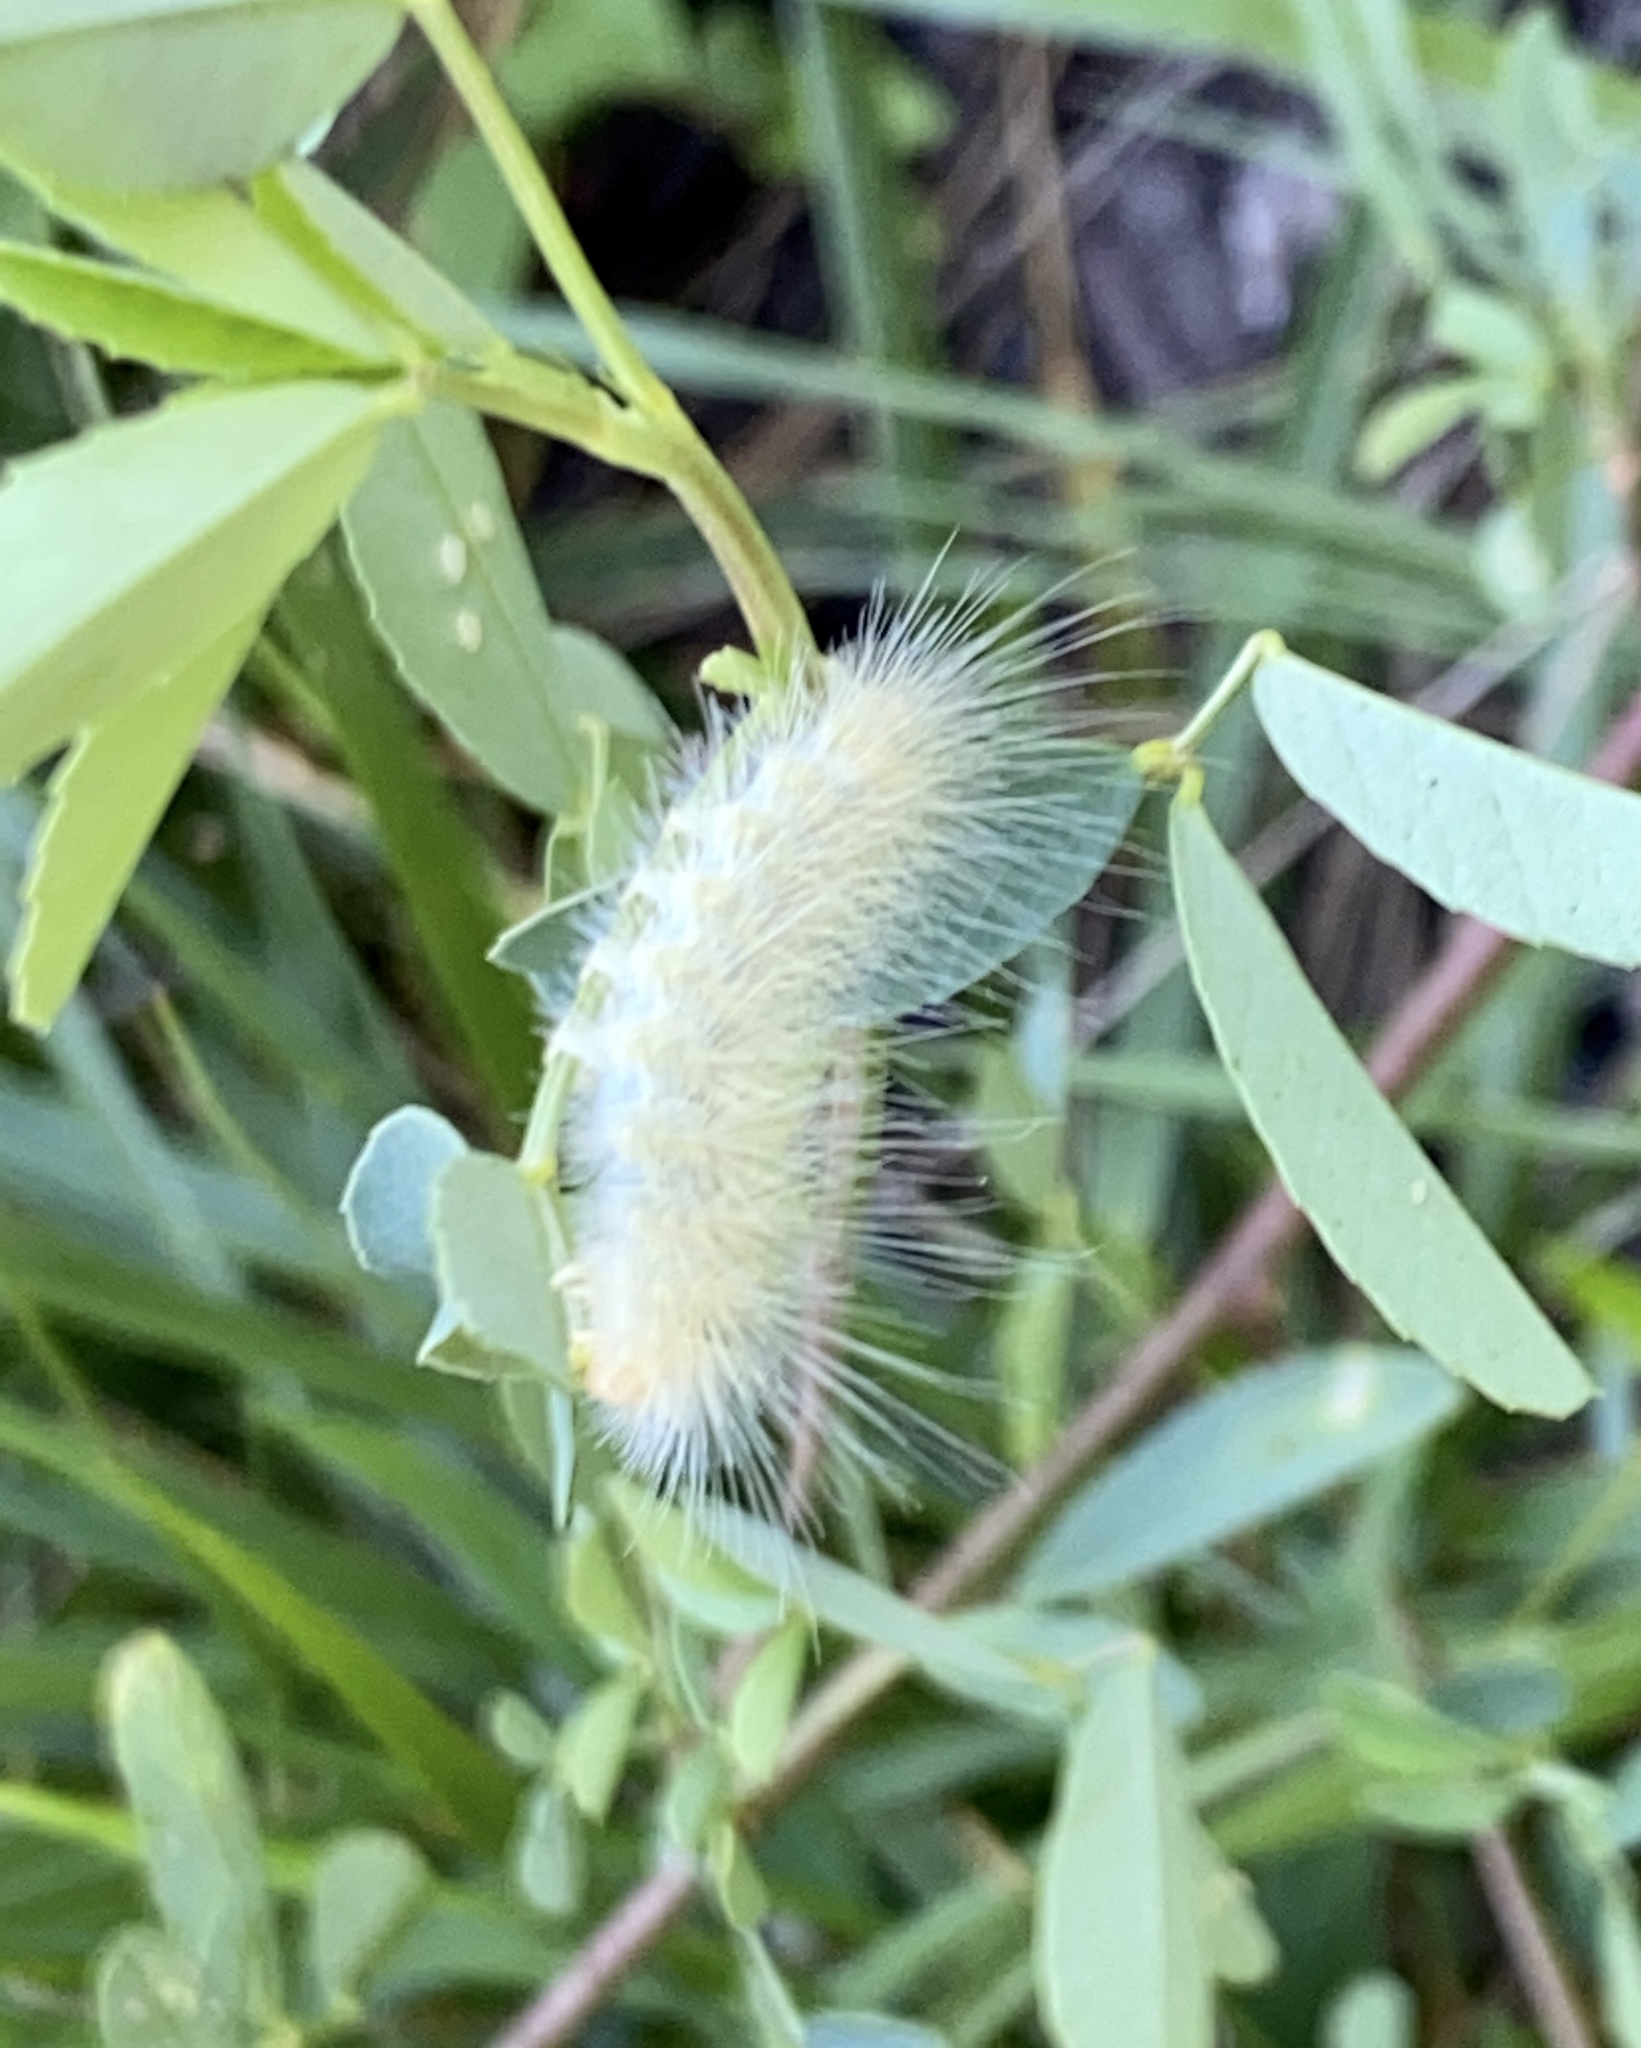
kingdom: Animalia
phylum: Arthropoda
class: Insecta
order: Lepidoptera
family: Erebidae
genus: Spilosoma
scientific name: Spilosoma virginica
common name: Virginia tiger moth
